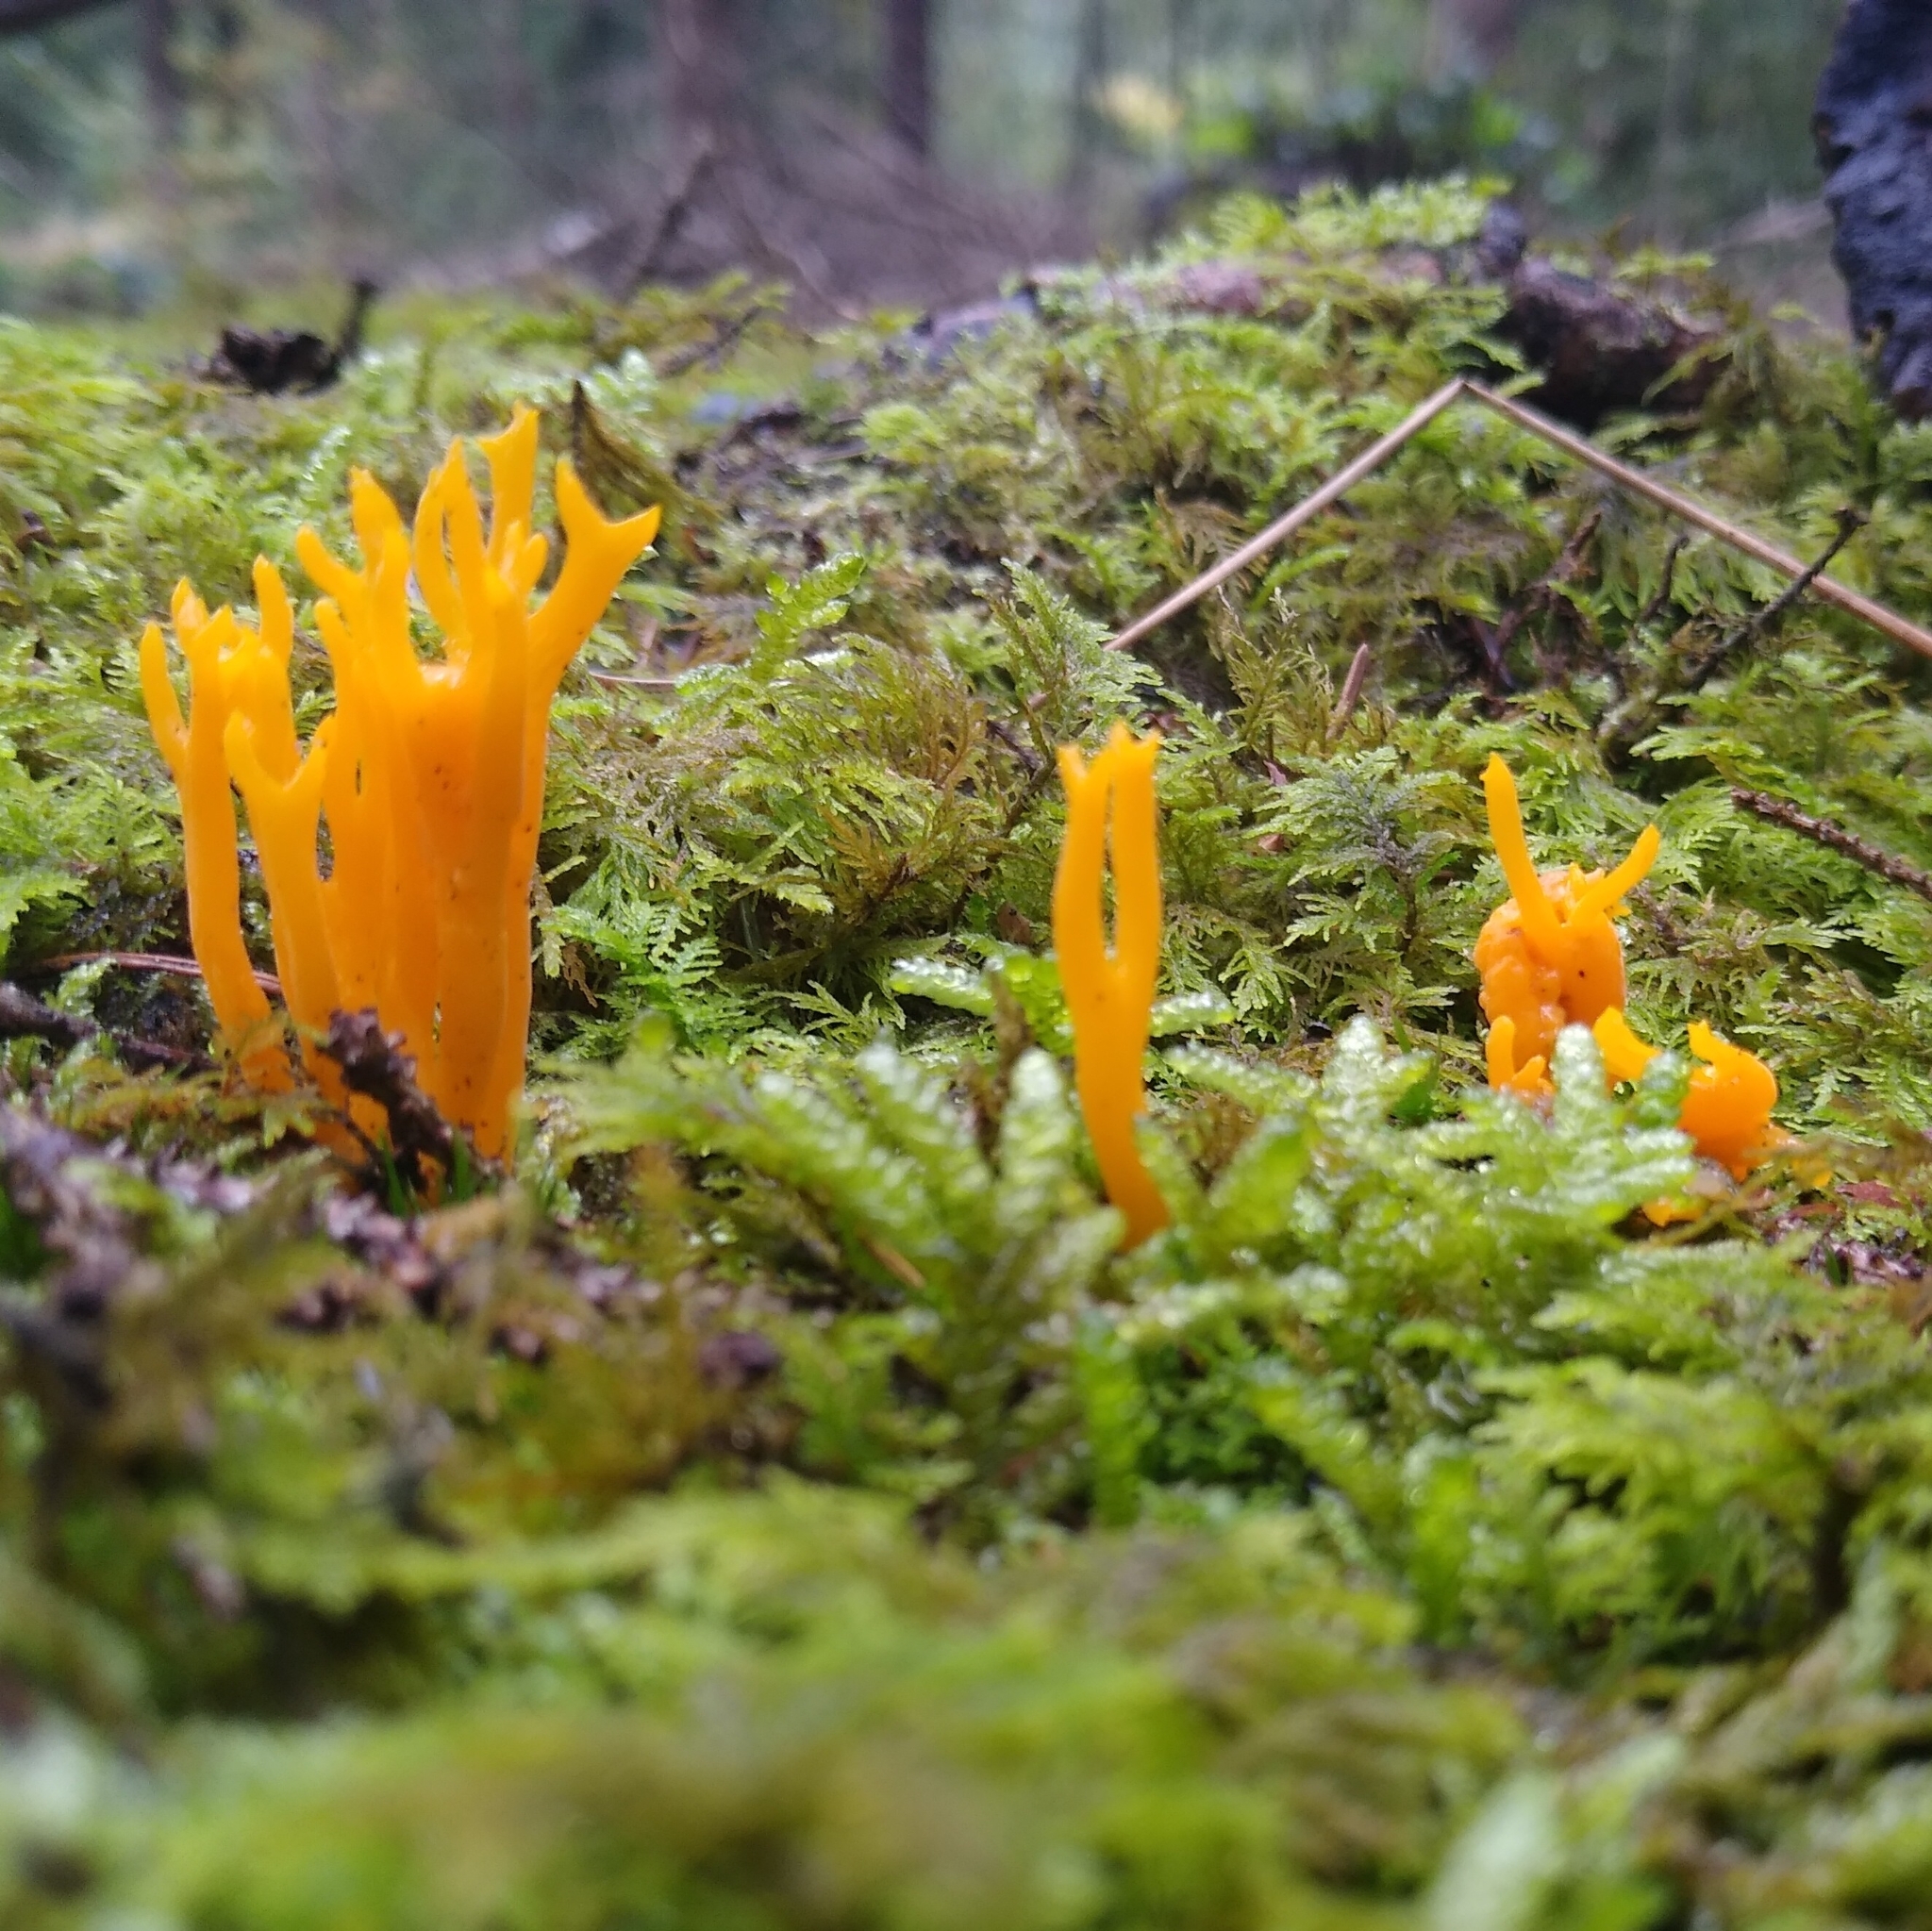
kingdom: Fungi
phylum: Basidiomycota
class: Dacrymycetes
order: Dacrymycetales
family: Dacrymycetaceae
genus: Calocera
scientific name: Calocera viscosa
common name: Yellow stagshorn
